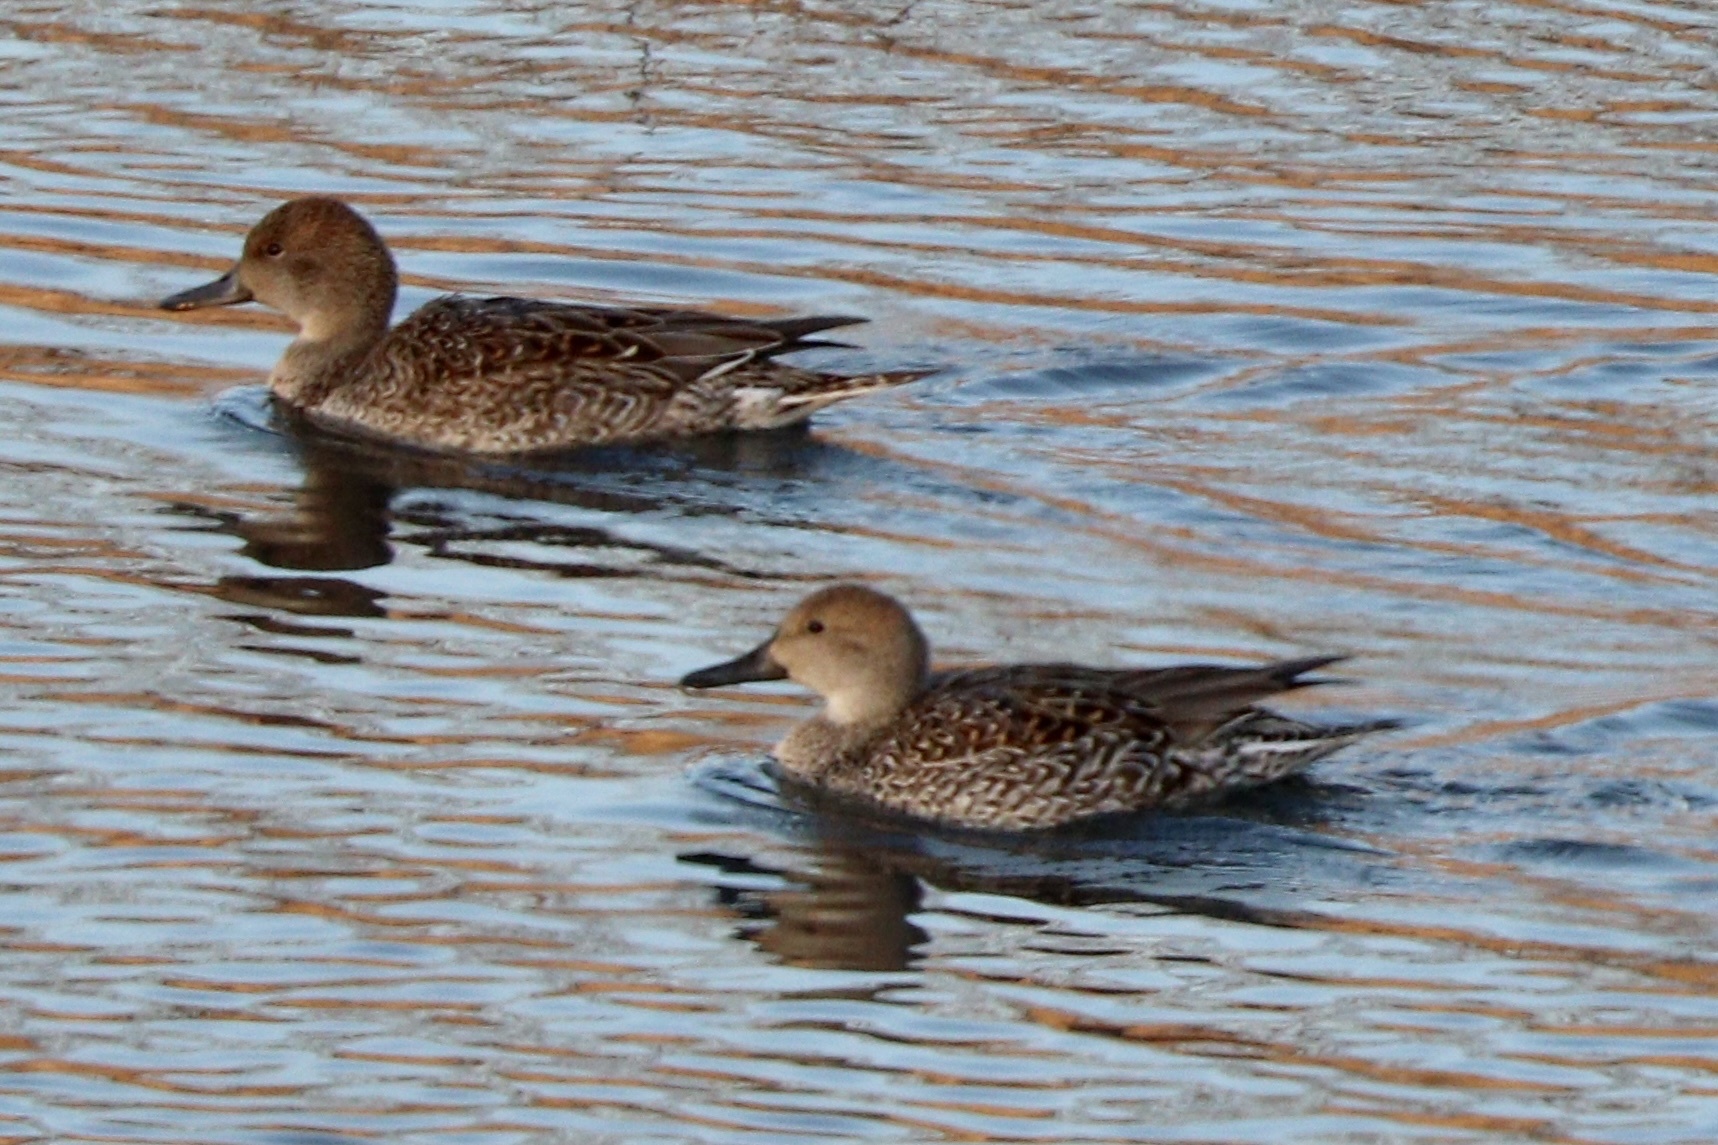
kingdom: Animalia
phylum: Chordata
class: Aves
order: Anseriformes
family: Anatidae
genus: Anas
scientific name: Anas acuta
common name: Northern pintail
